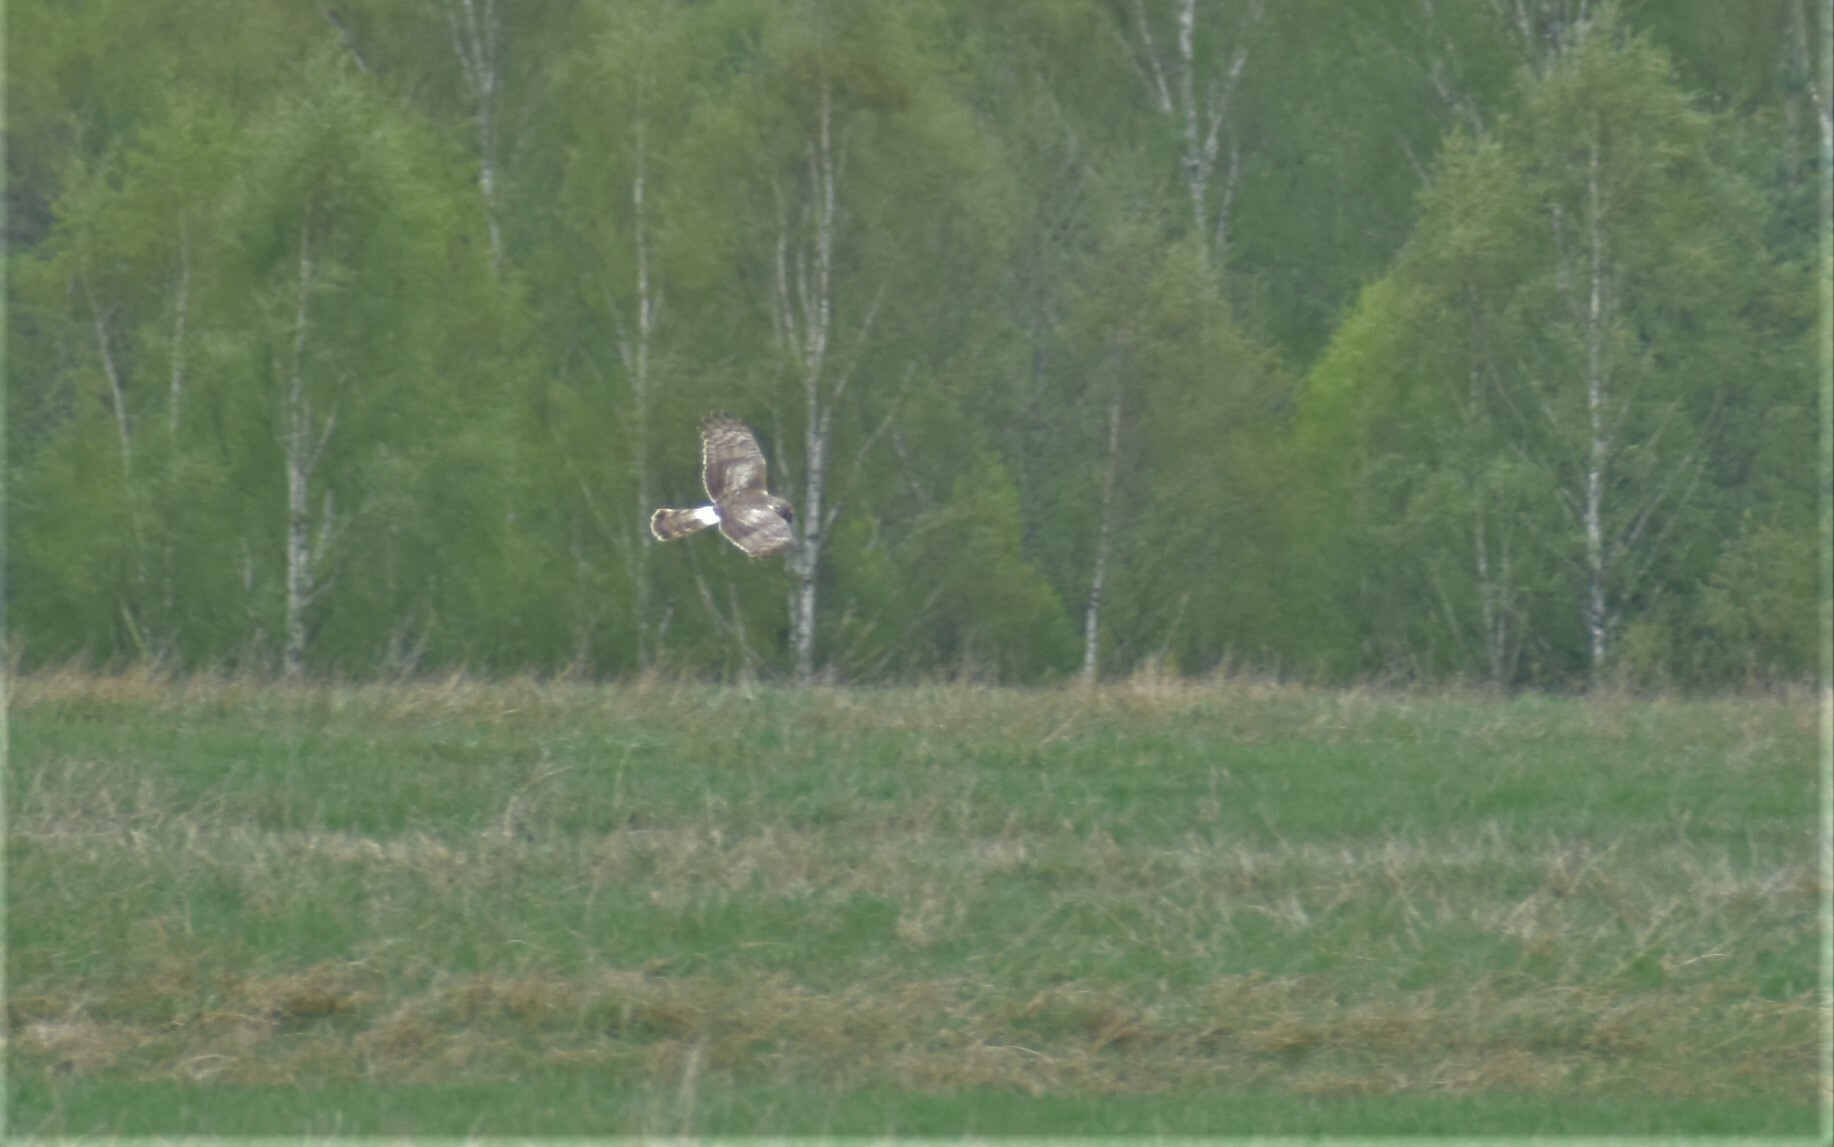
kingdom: Animalia
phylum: Chordata
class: Aves
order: Accipitriformes
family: Accipitridae
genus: Circus
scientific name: Circus cyaneus
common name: Hen harrier
